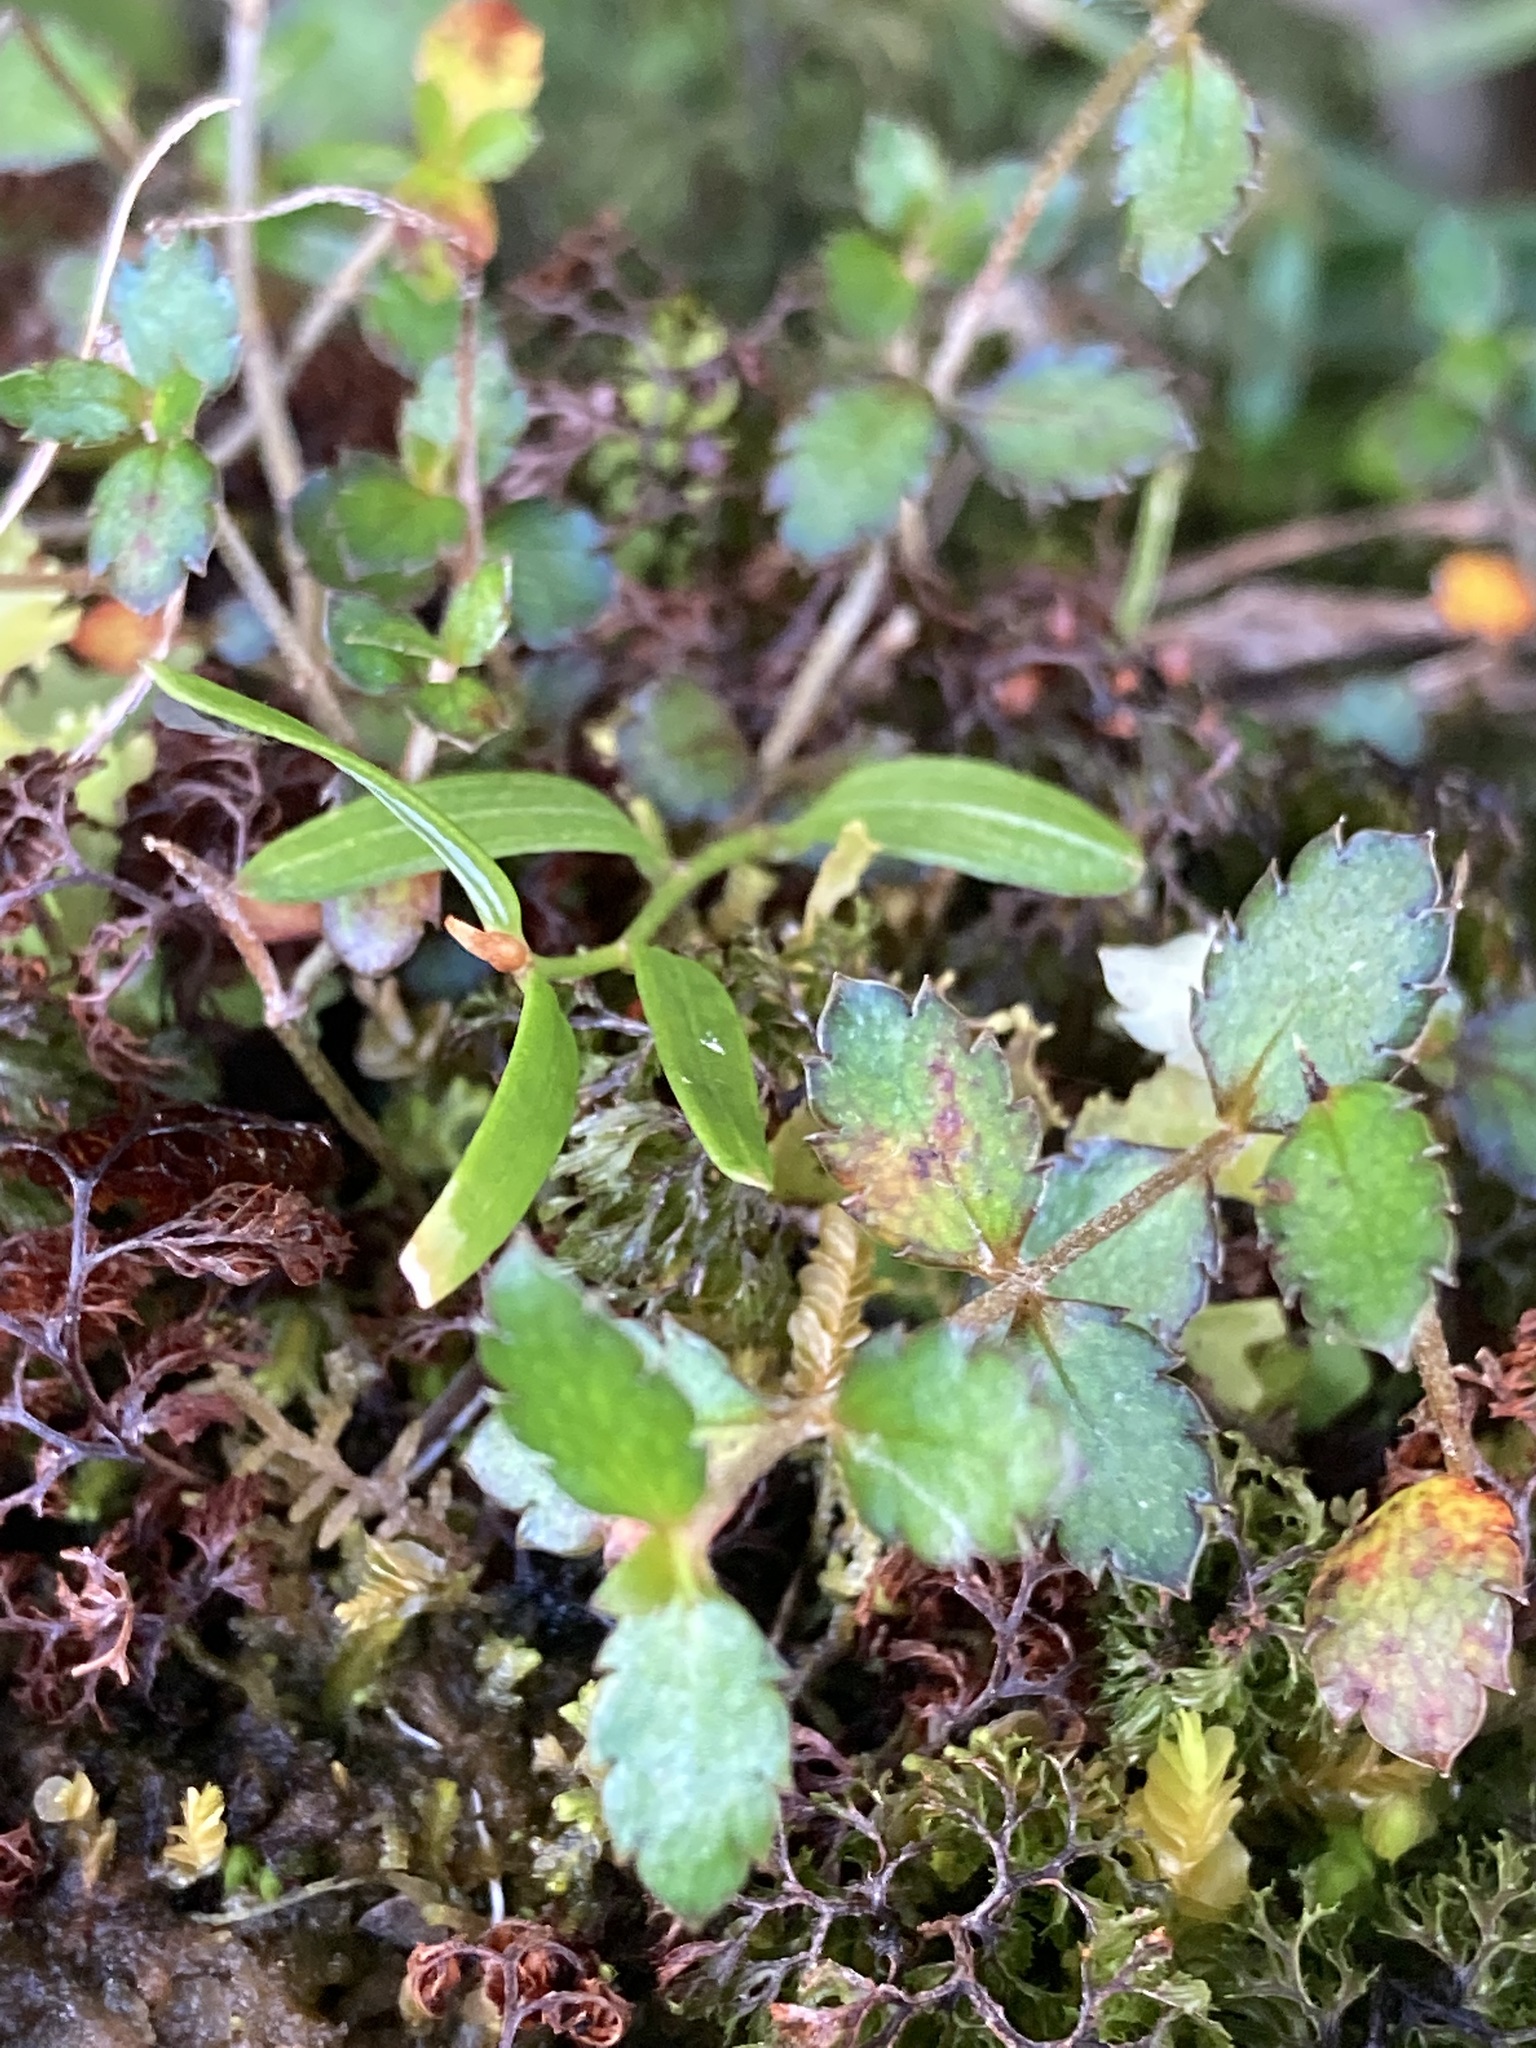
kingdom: Plantae
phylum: Tracheophyta
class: Magnoliopsida
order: Saxifragales
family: Haloragaceae
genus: Gonocarpus
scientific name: Gonocarpus aggregatus
